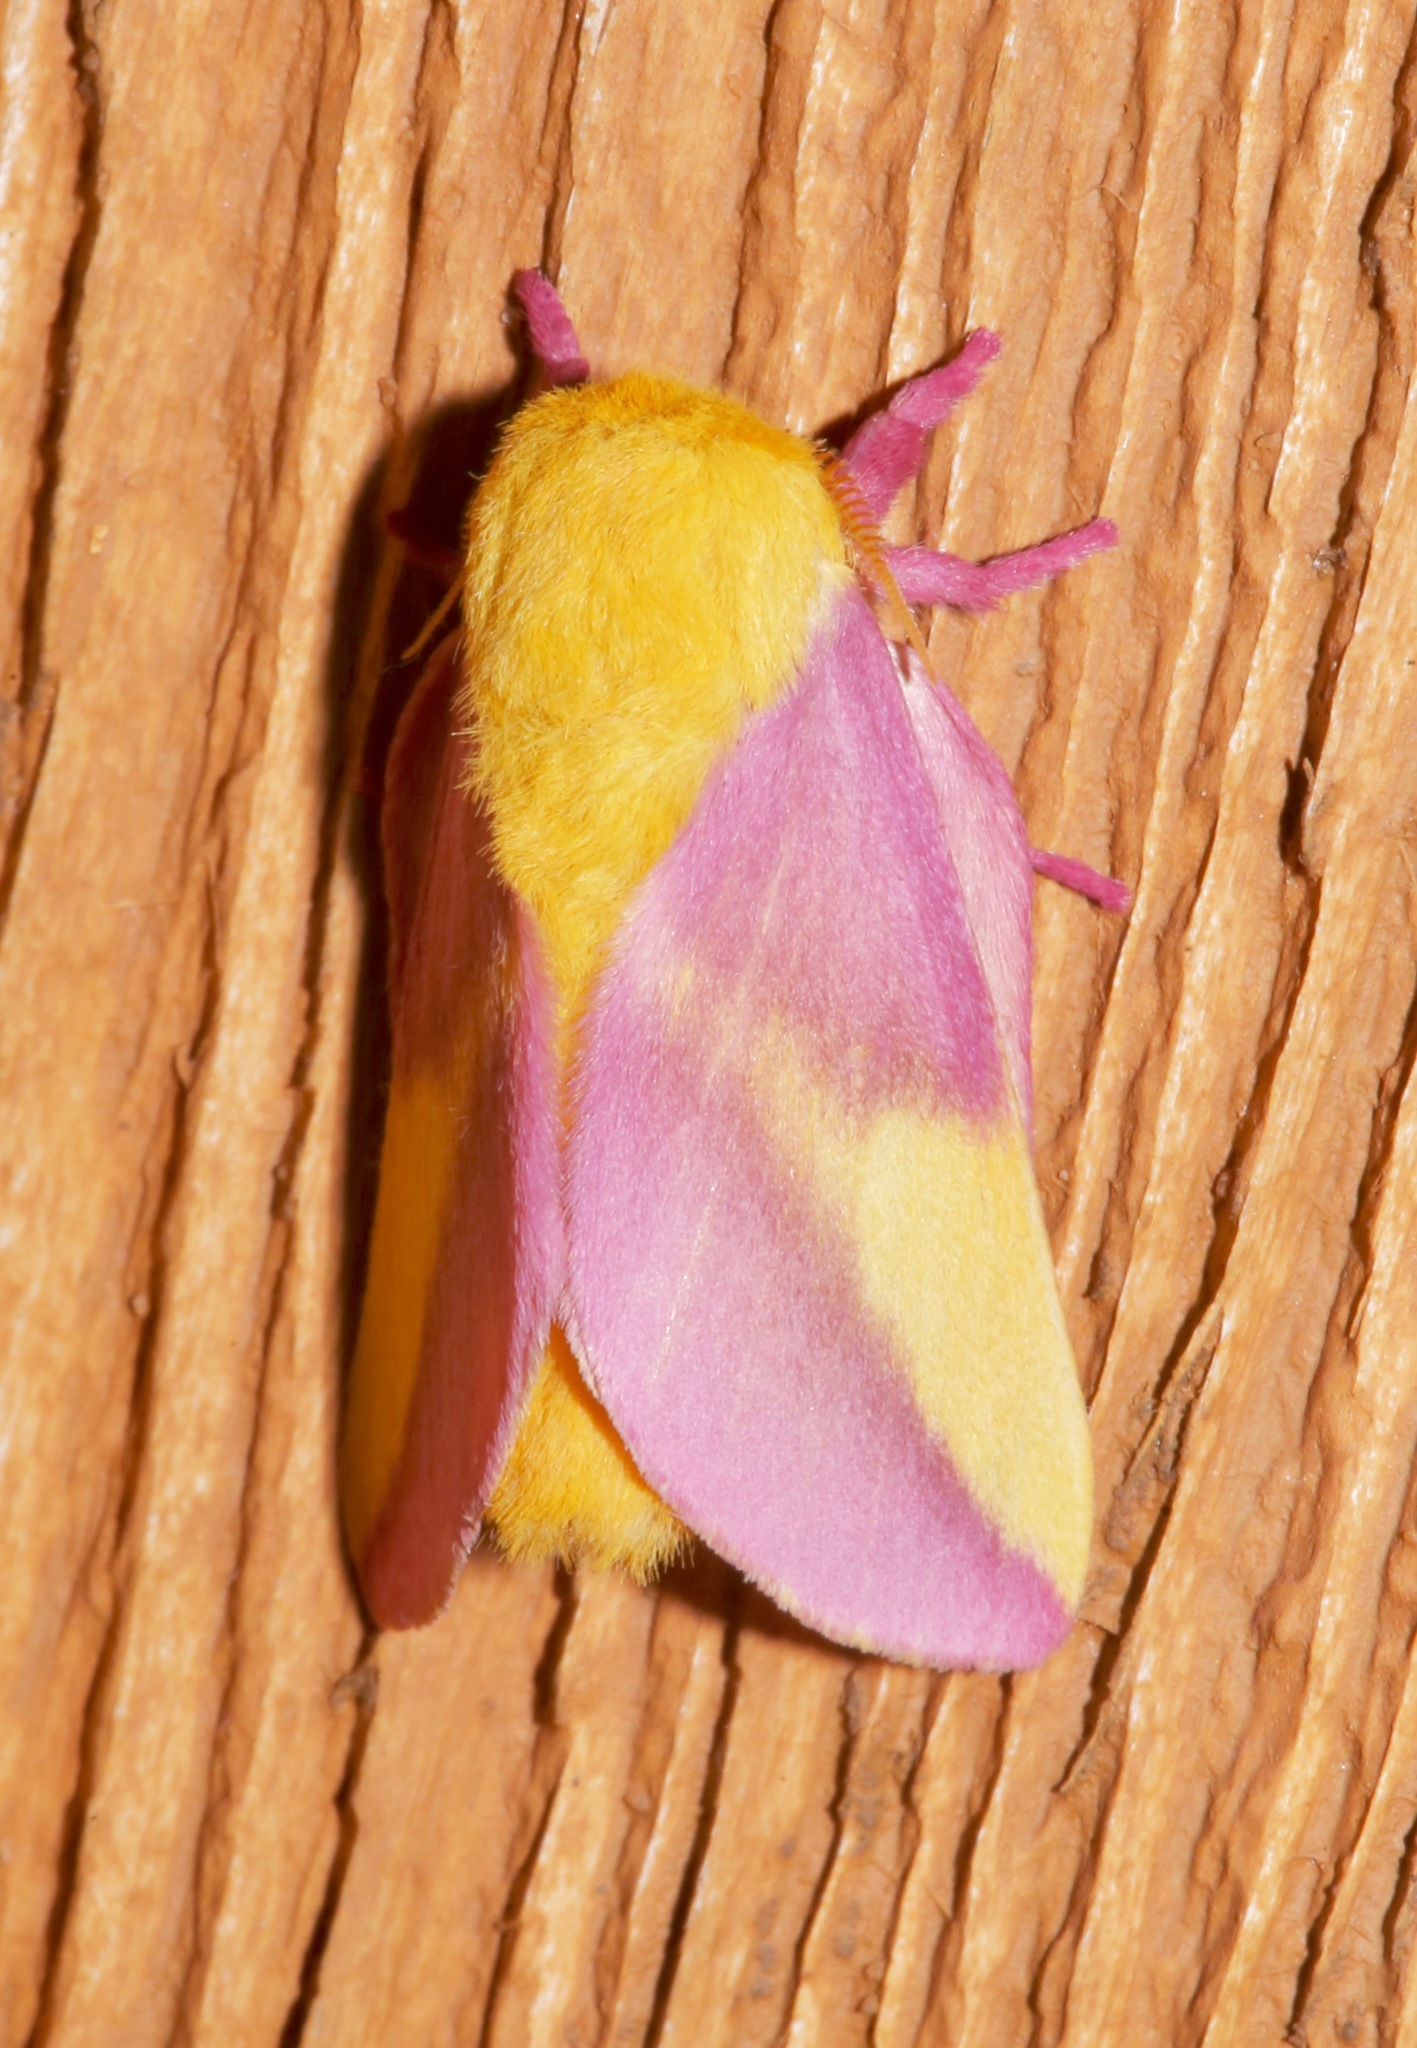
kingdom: Animalia
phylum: Arthropoda
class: Insecta
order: Lepidoptera
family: Saturniidae
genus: Dryocampa
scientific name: Dryocampa rubicunda
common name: Rosy maple moth
